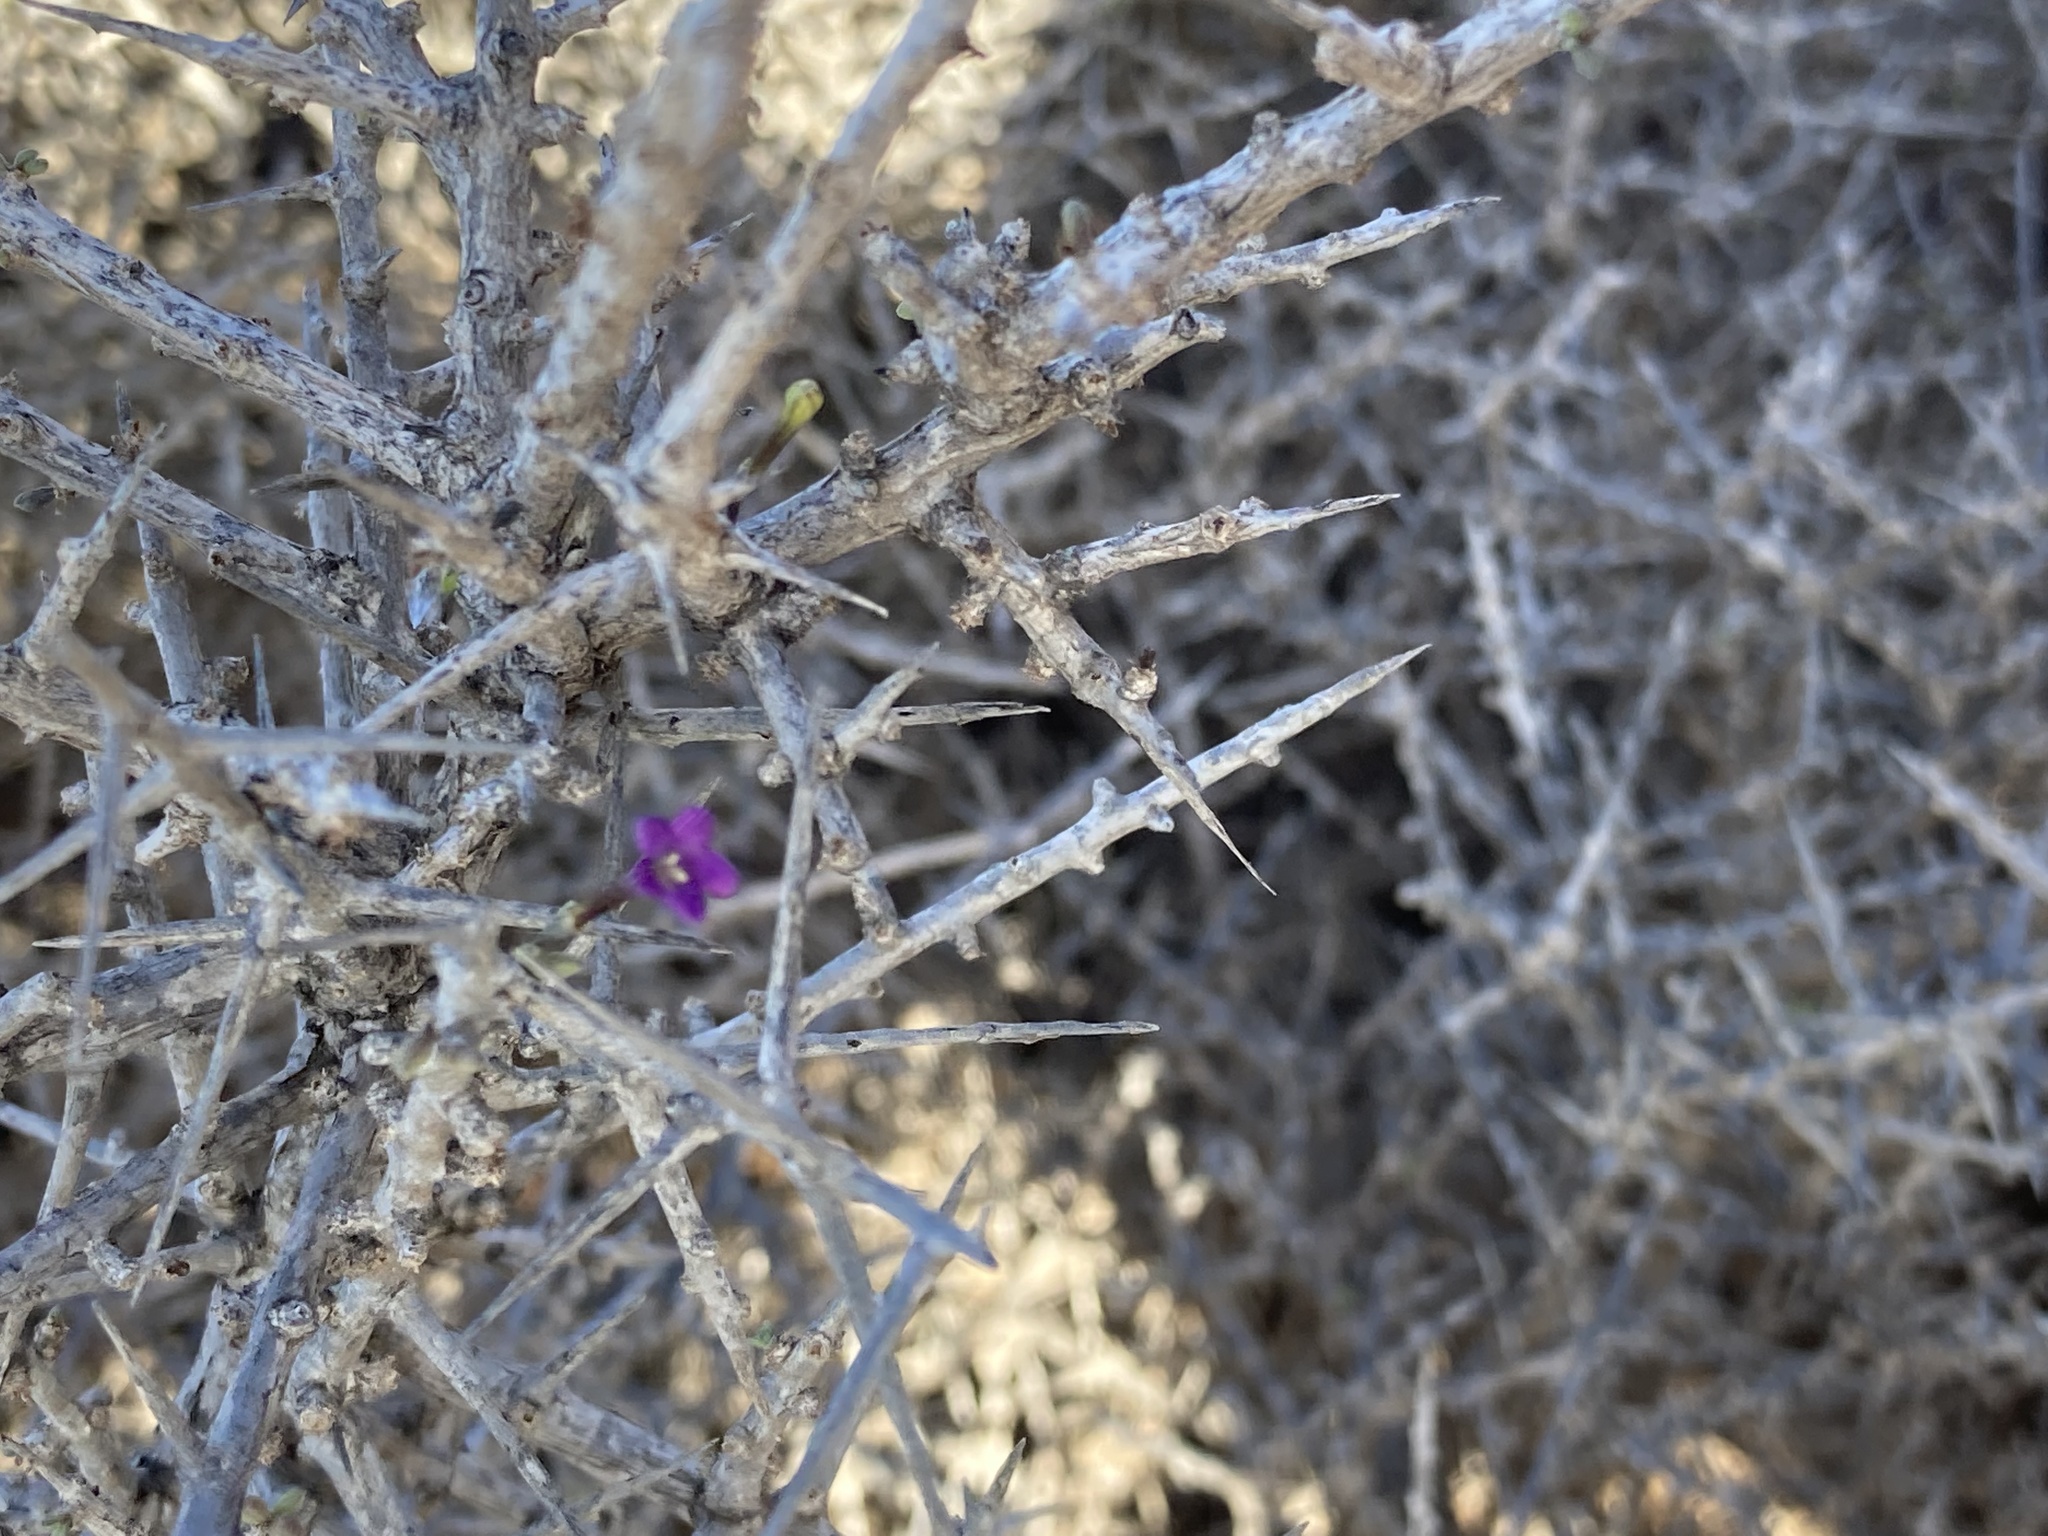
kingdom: Plantae
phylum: Tracheophyta
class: Magnoliopsida
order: Solanales
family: Solanaceae
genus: Lycium
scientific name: Lycium intricatum
